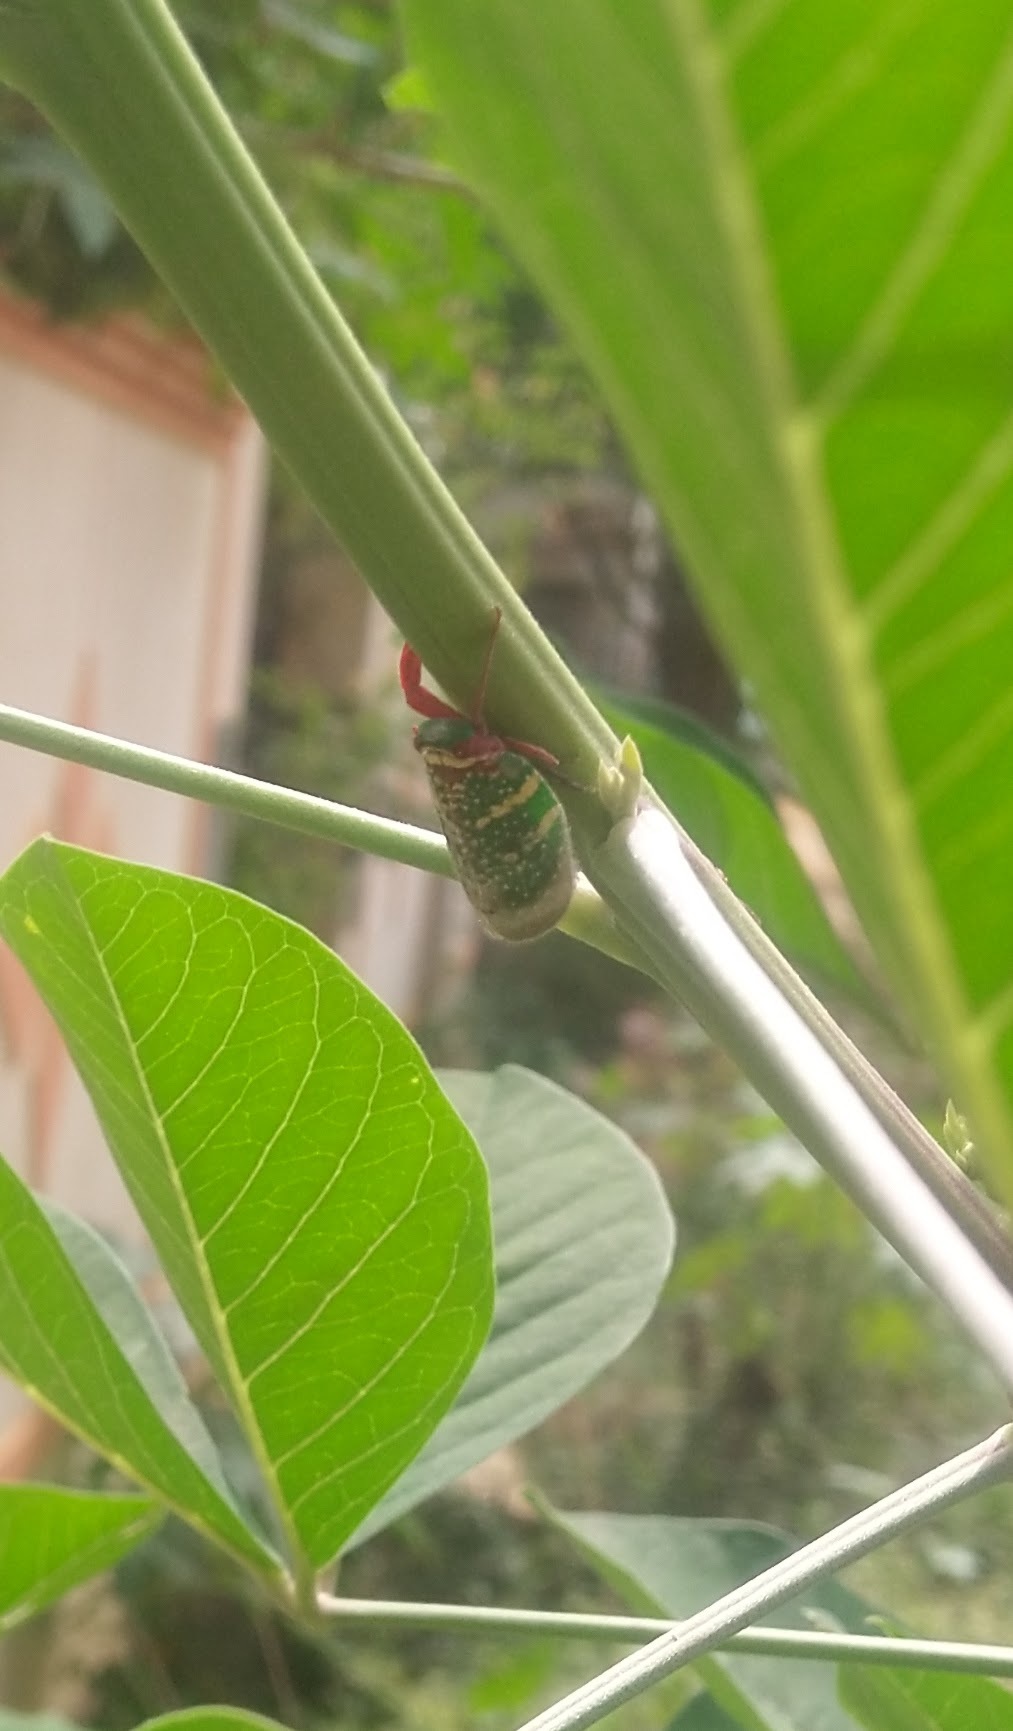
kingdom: Animalia
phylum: Arthropoda
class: Insecta
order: Hemiptera
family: Eurybrachidae
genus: Eurybrachys
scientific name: Eurybrachys tomentosa
